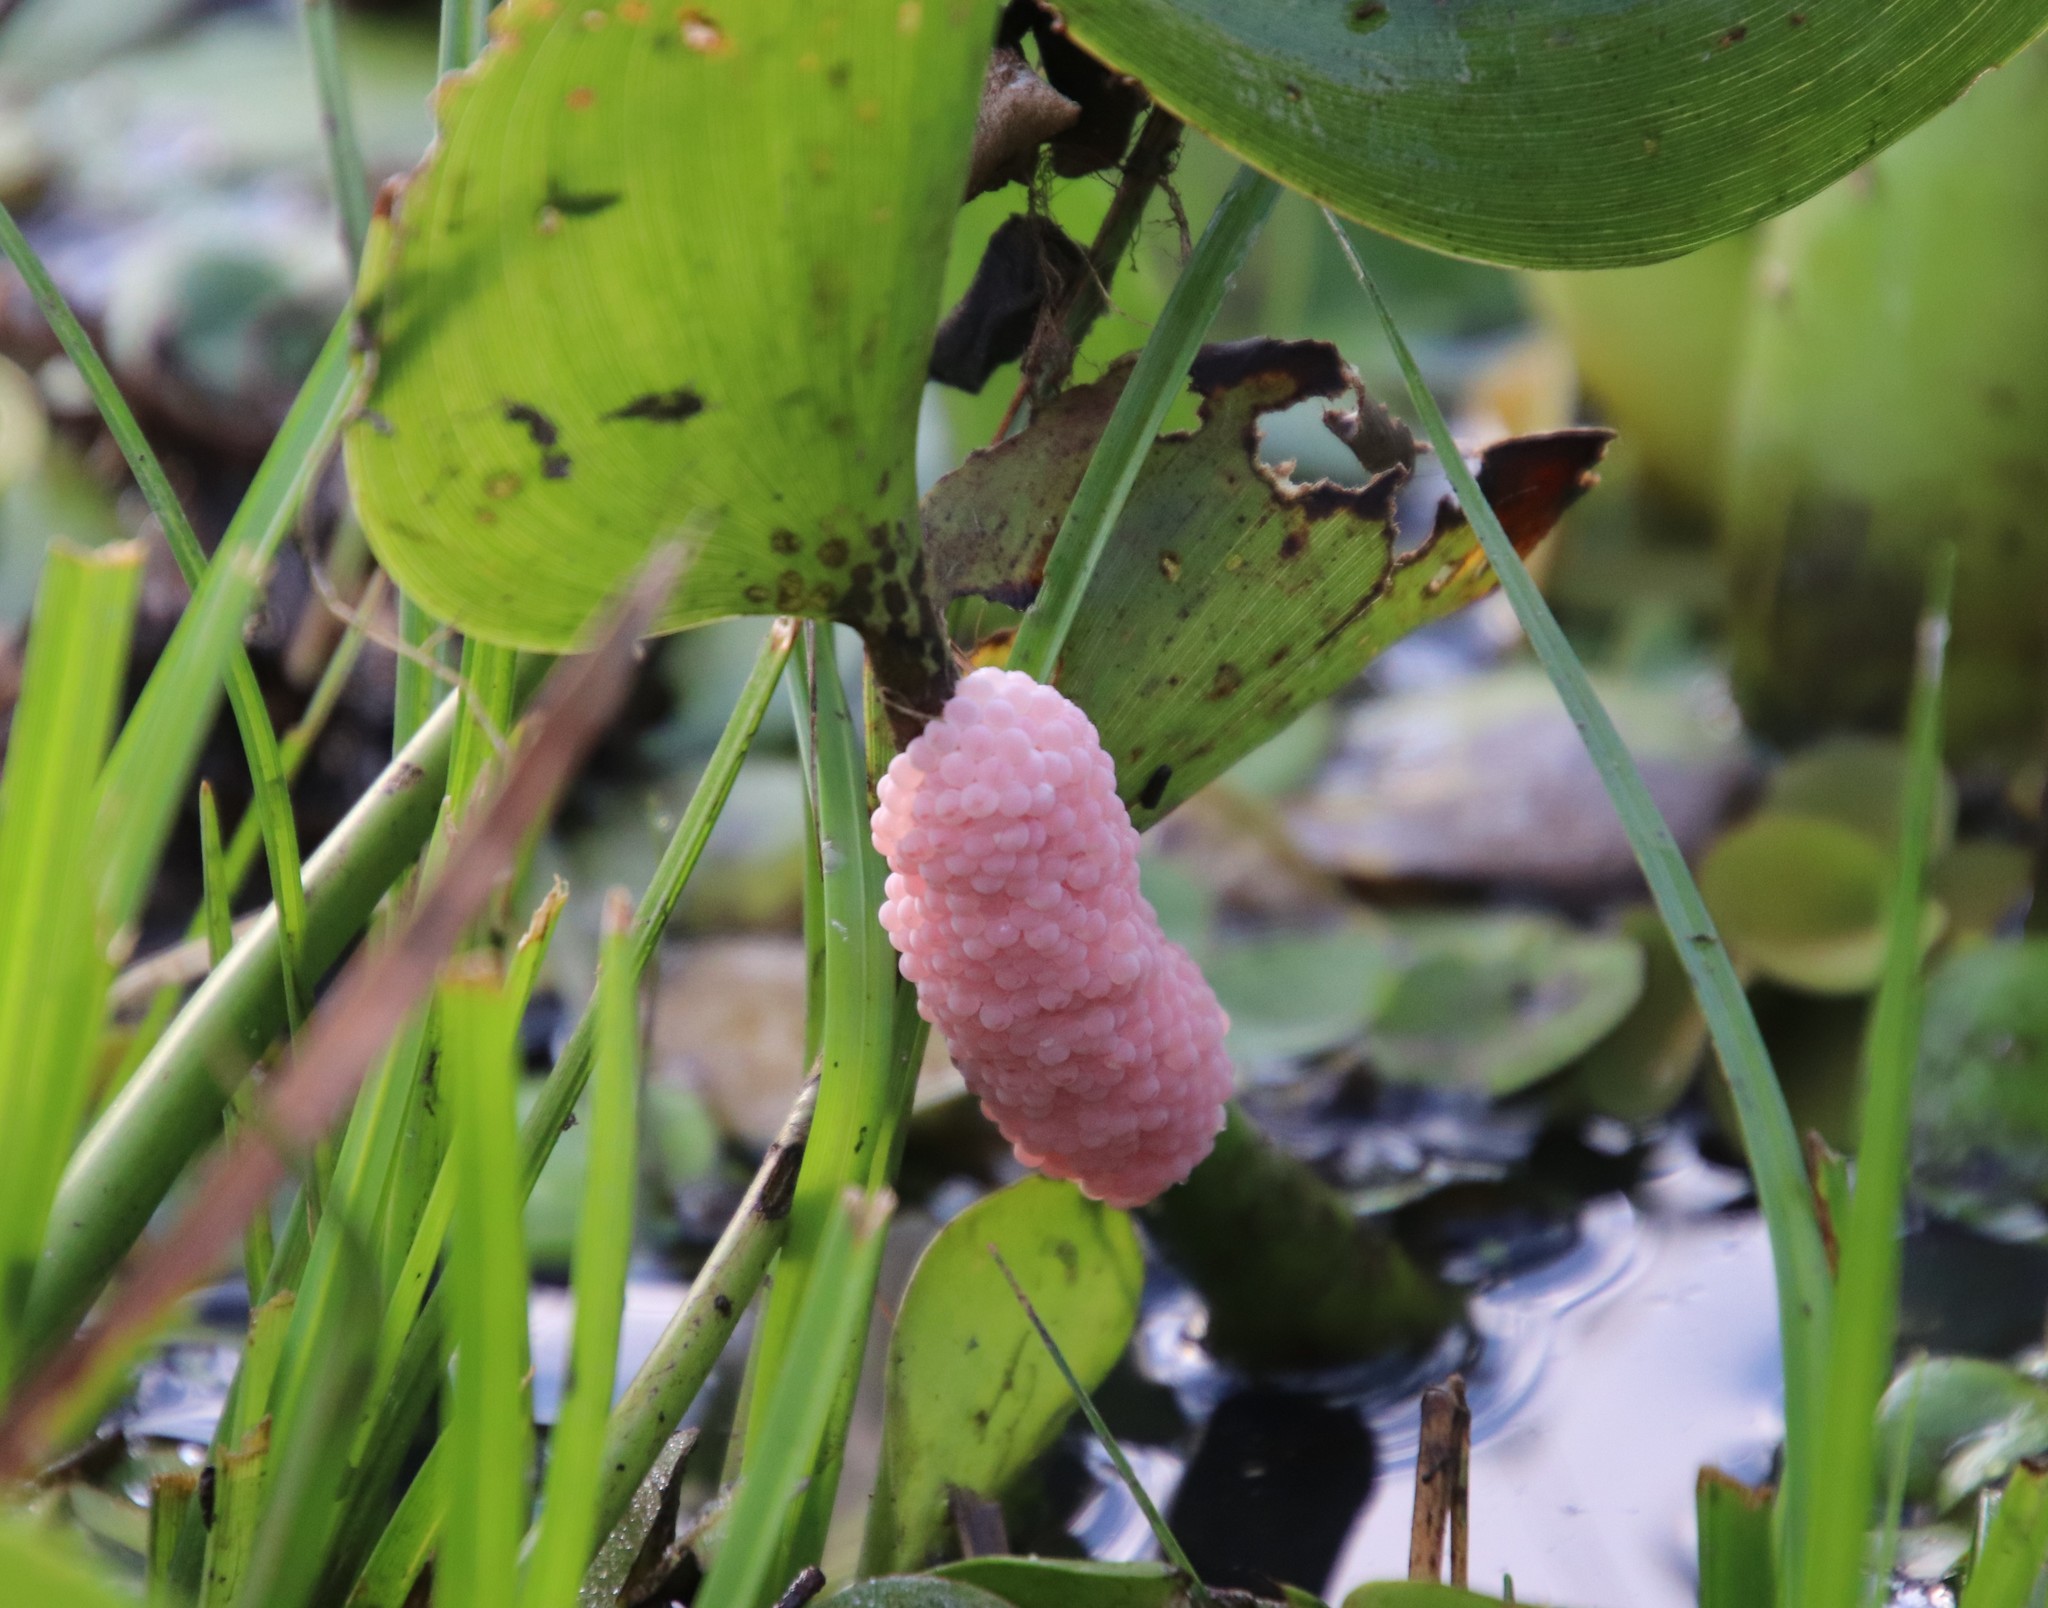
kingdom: Animalia
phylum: Mollusca
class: Gastropoda
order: Architaenioglossa
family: Ampullariidae
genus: Pomacea
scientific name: Pomacea
